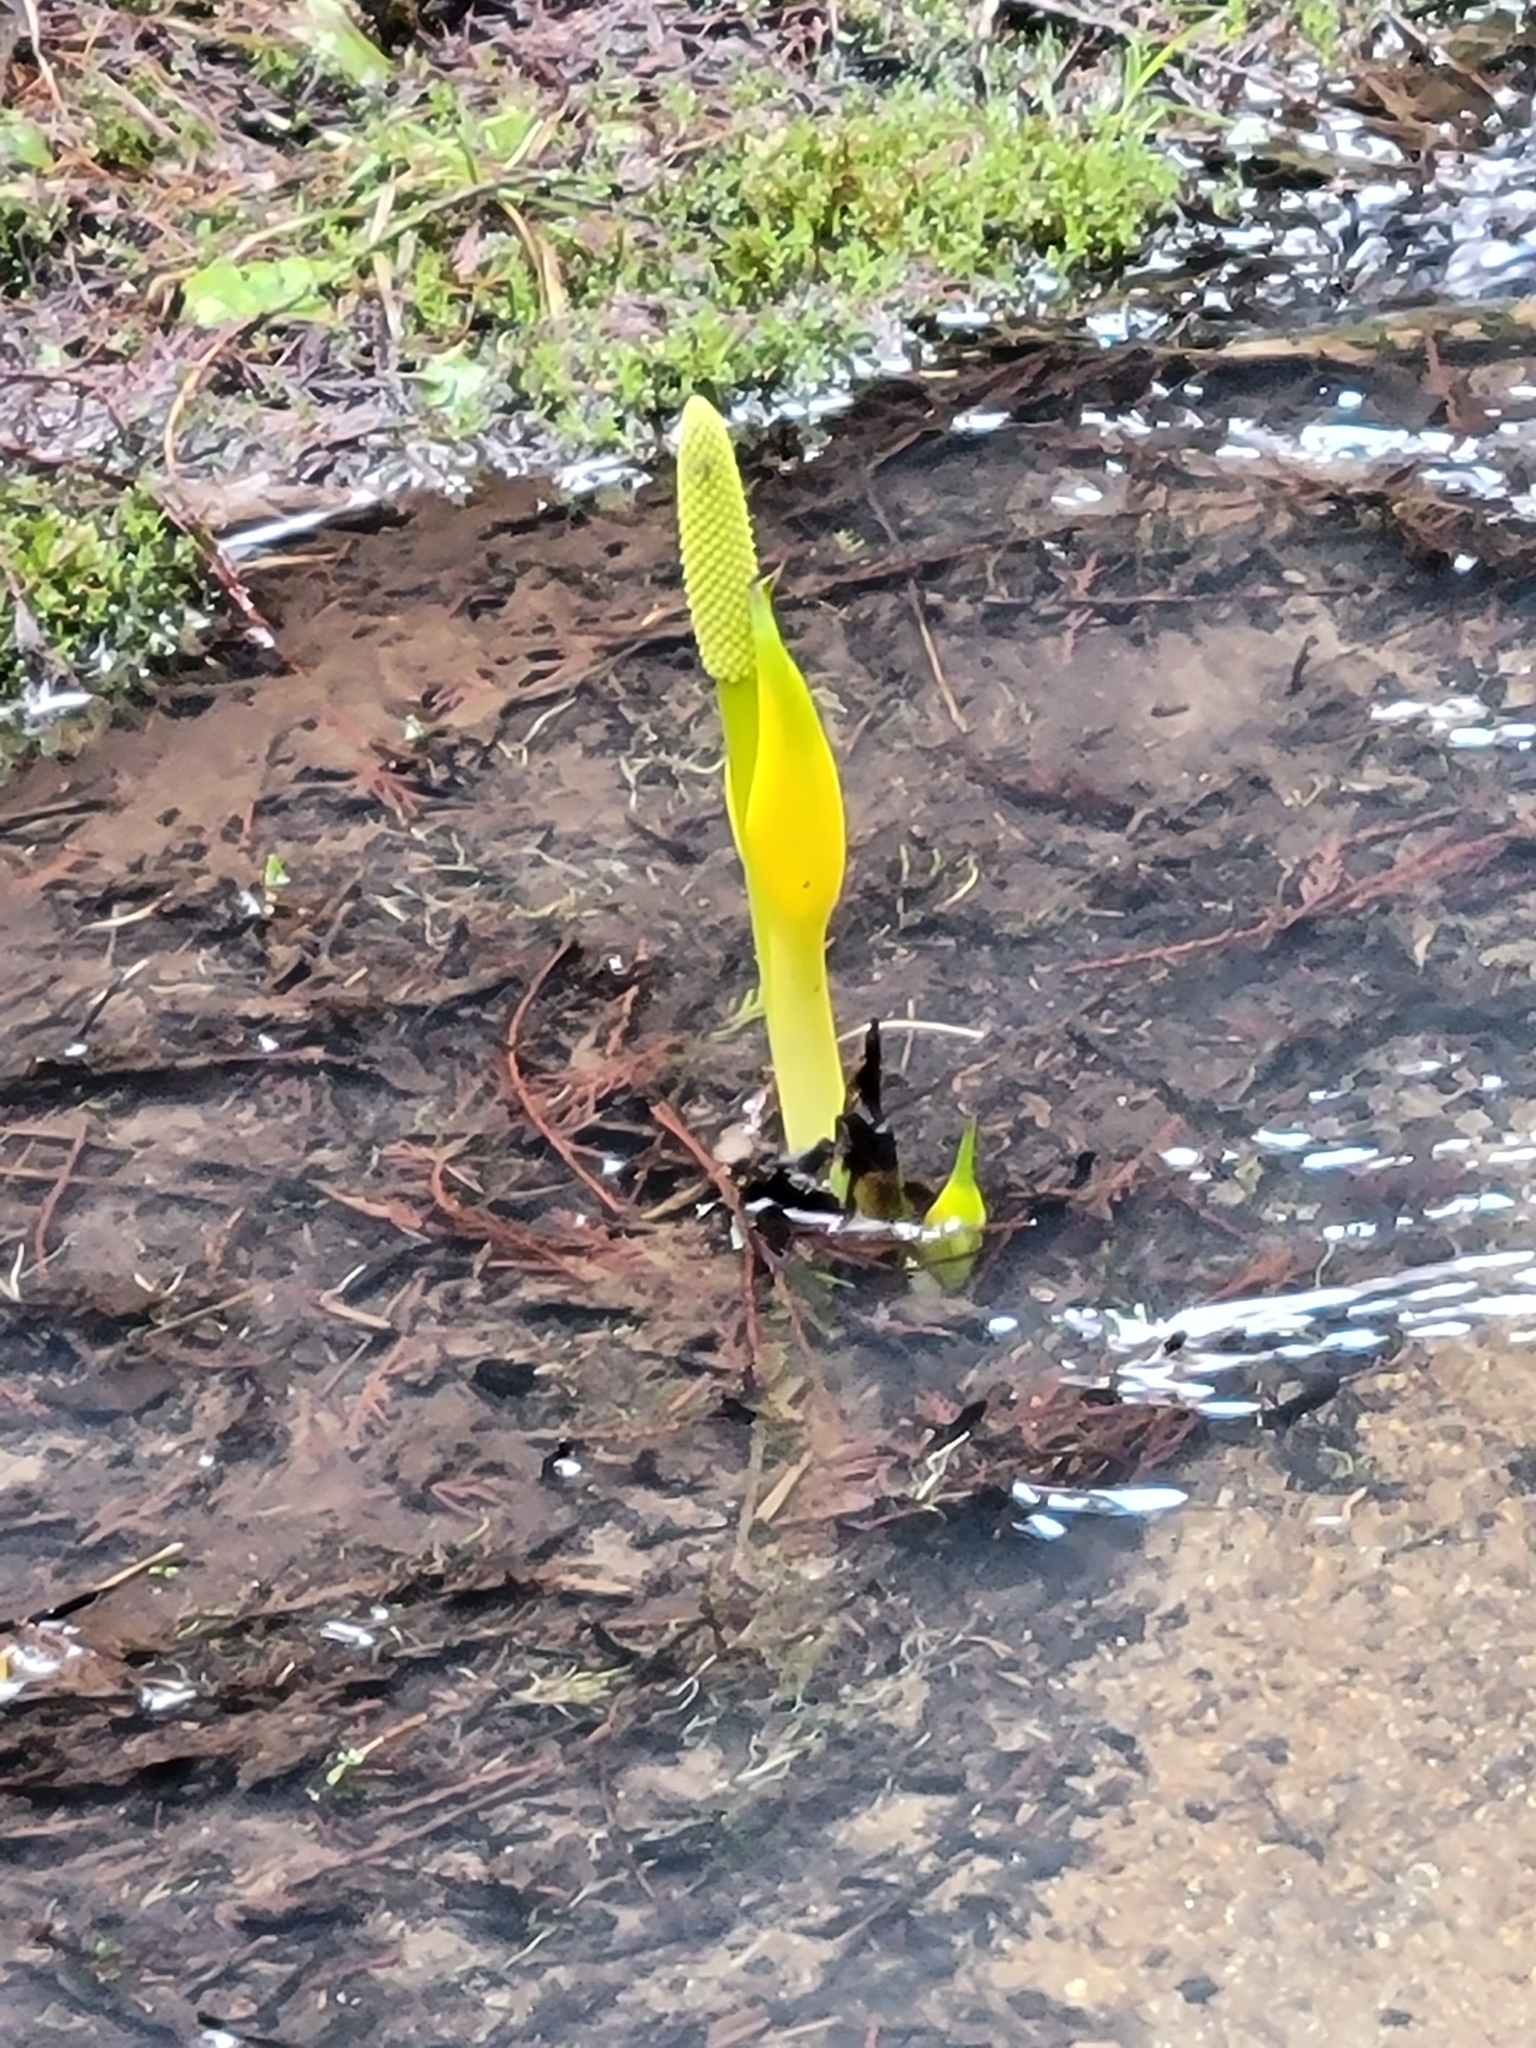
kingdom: Plantae
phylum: Tracheophyta
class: Liliopsida
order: Alismatales
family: Araceae
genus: Lysichiton
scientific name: Lysichiton americanus
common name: American skunk cabbage
